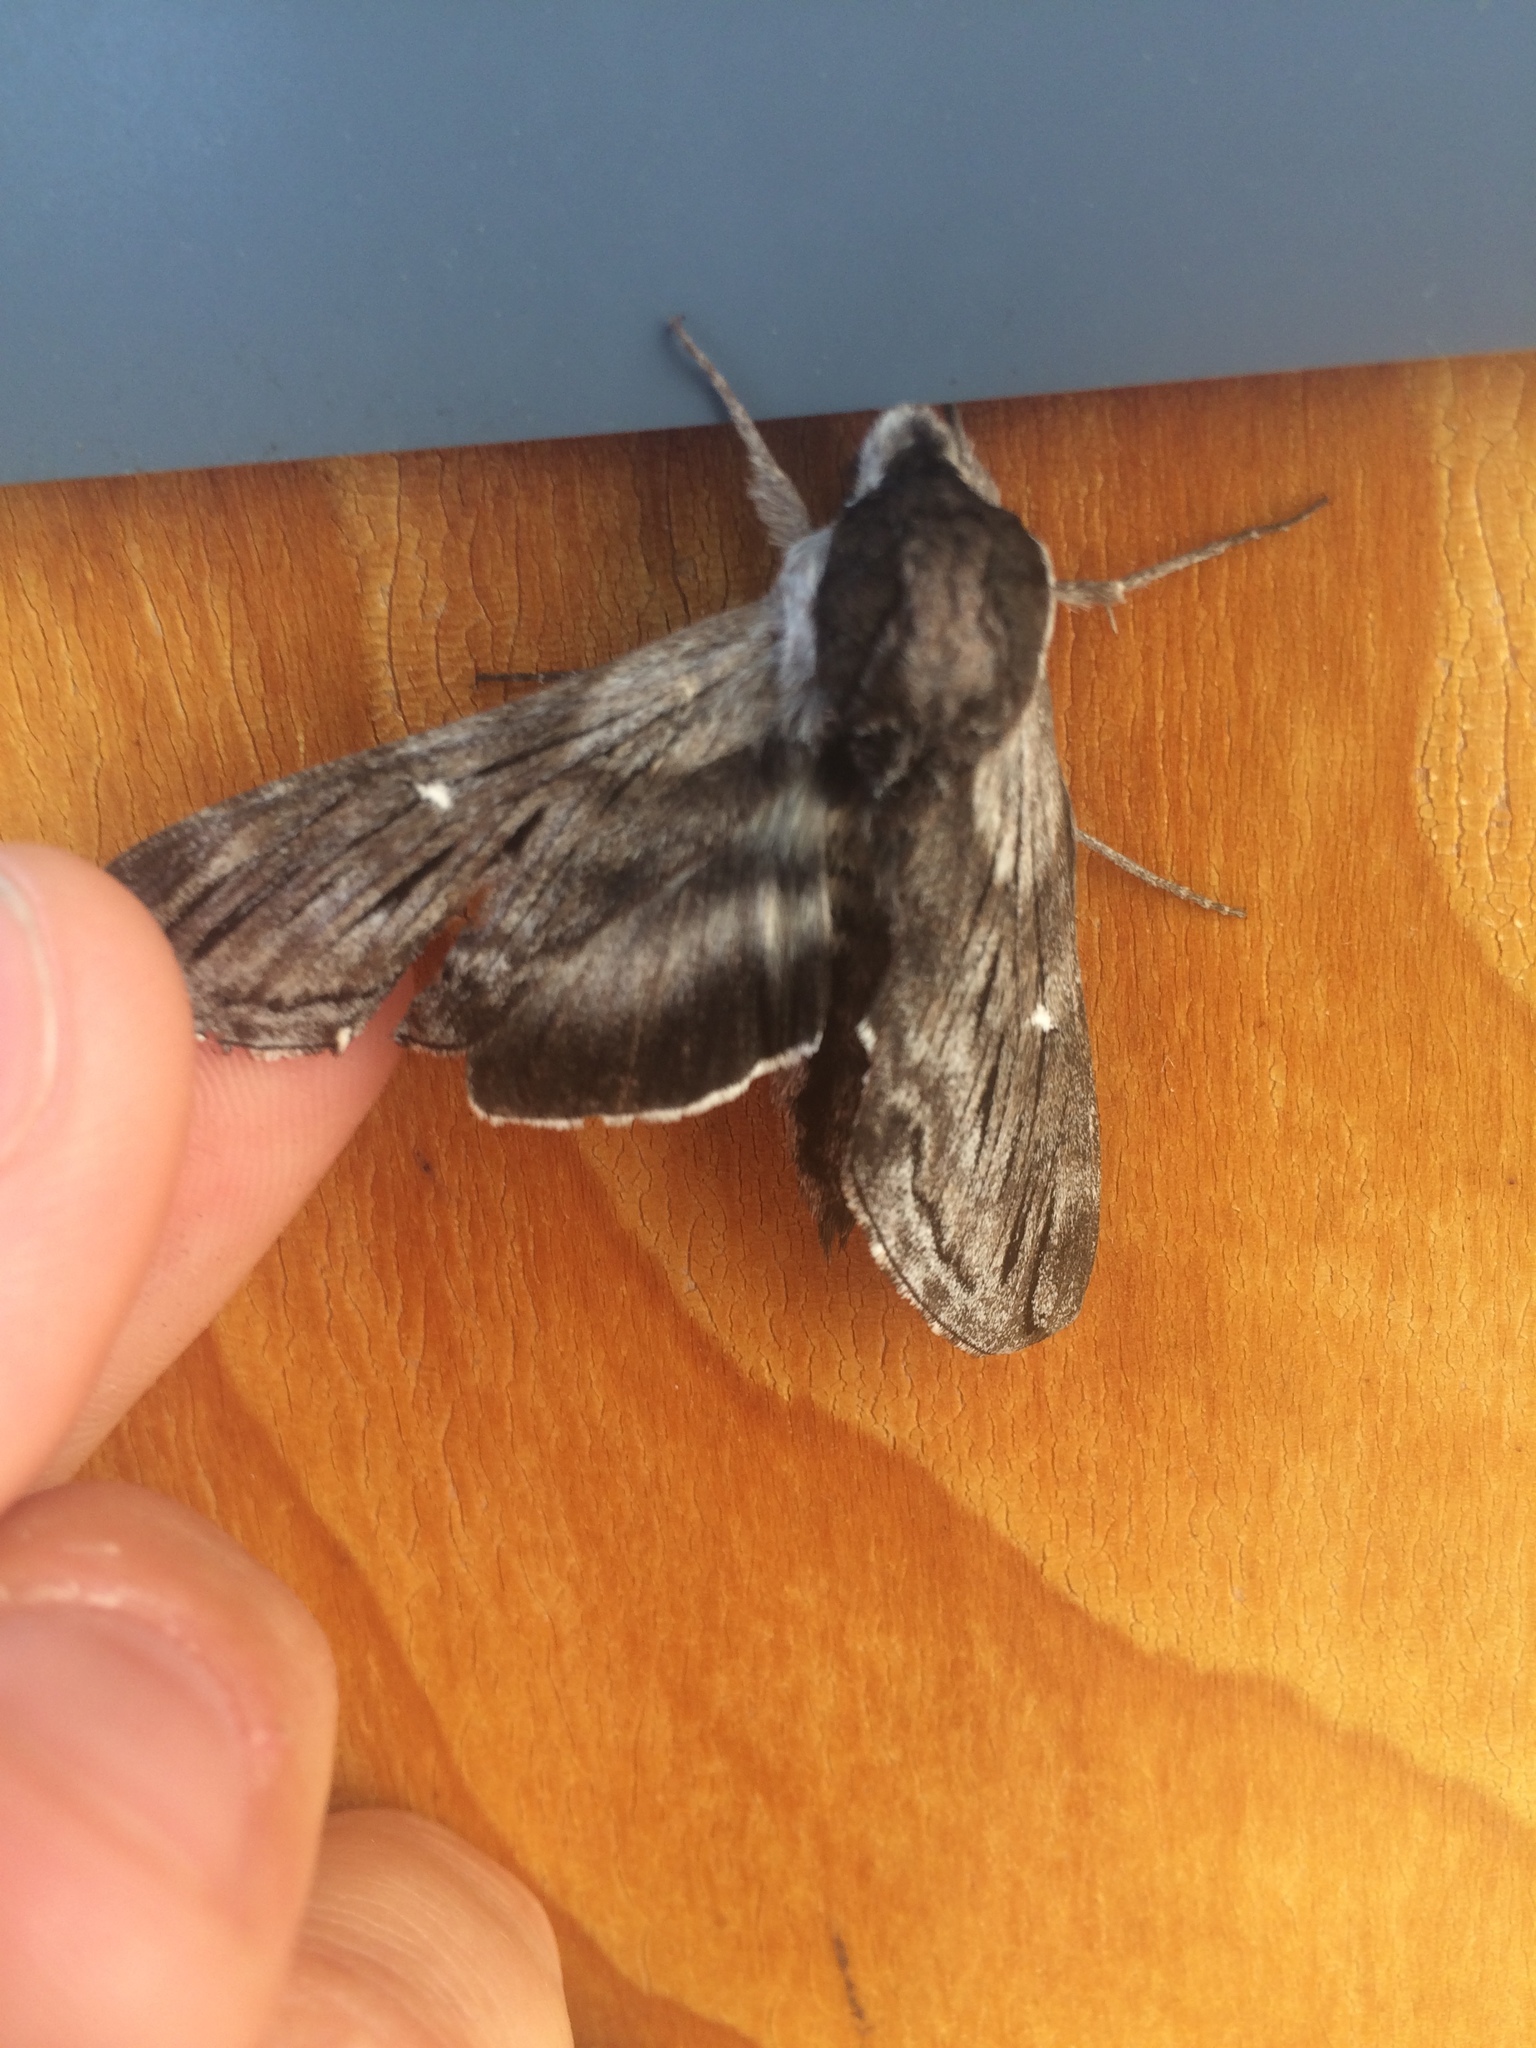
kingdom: Animalia
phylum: Arthropoda
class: Insecta
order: Lepidoptera
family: Sphingidae
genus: Sphinx
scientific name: Sphinx poecila
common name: Northern apple sphinx
